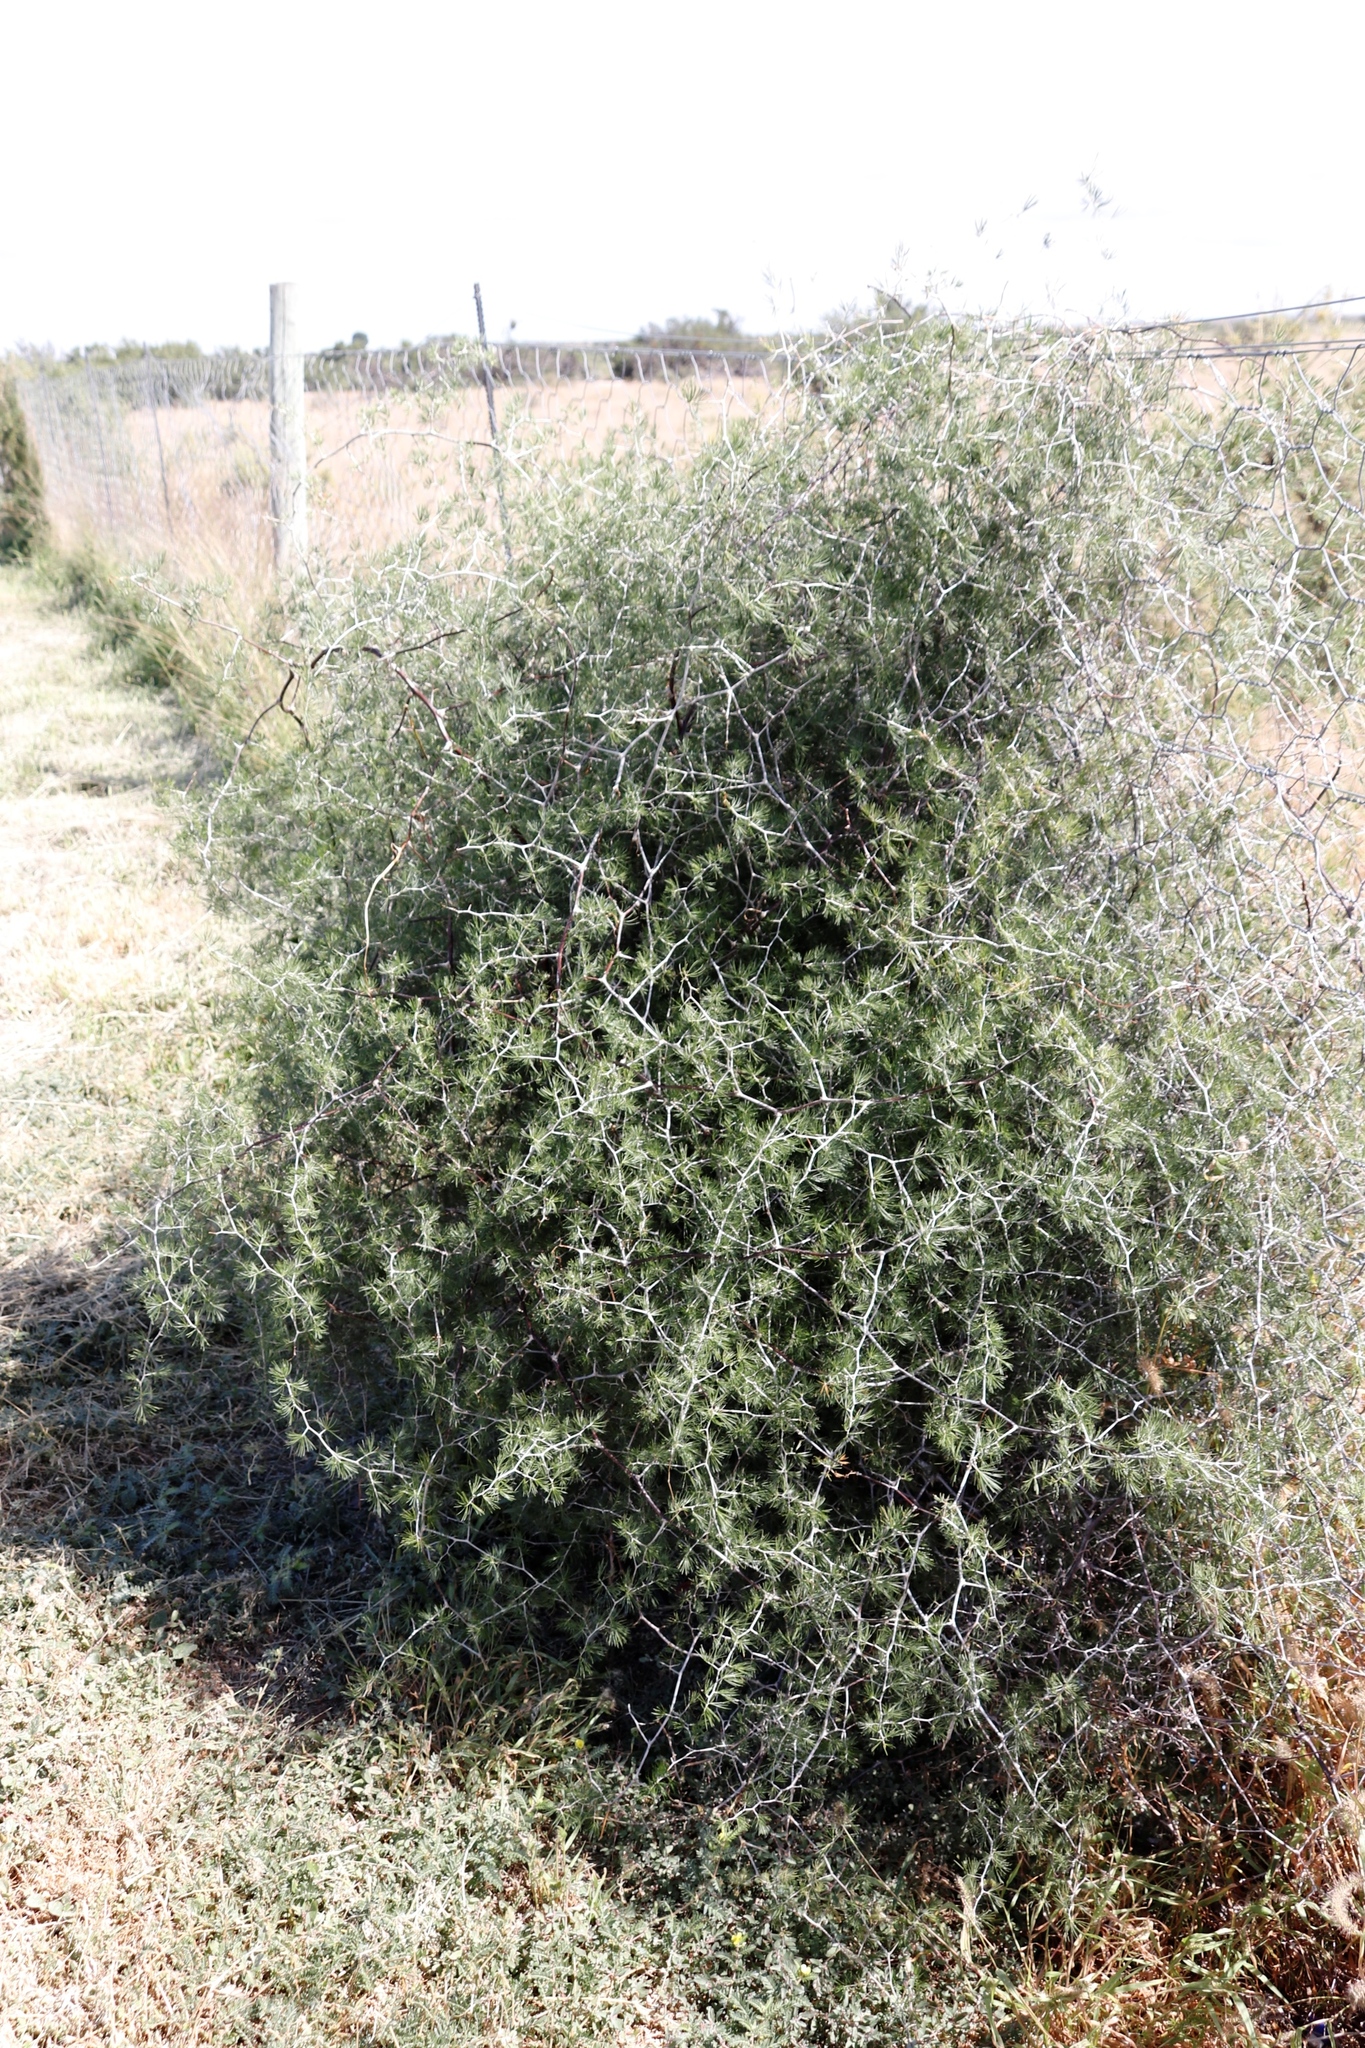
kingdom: Plantae
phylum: Tracheophyta
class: Liliopsida
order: Asparagales
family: Asparagaceae
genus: Asparagus
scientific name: Asparagus retrofractus
